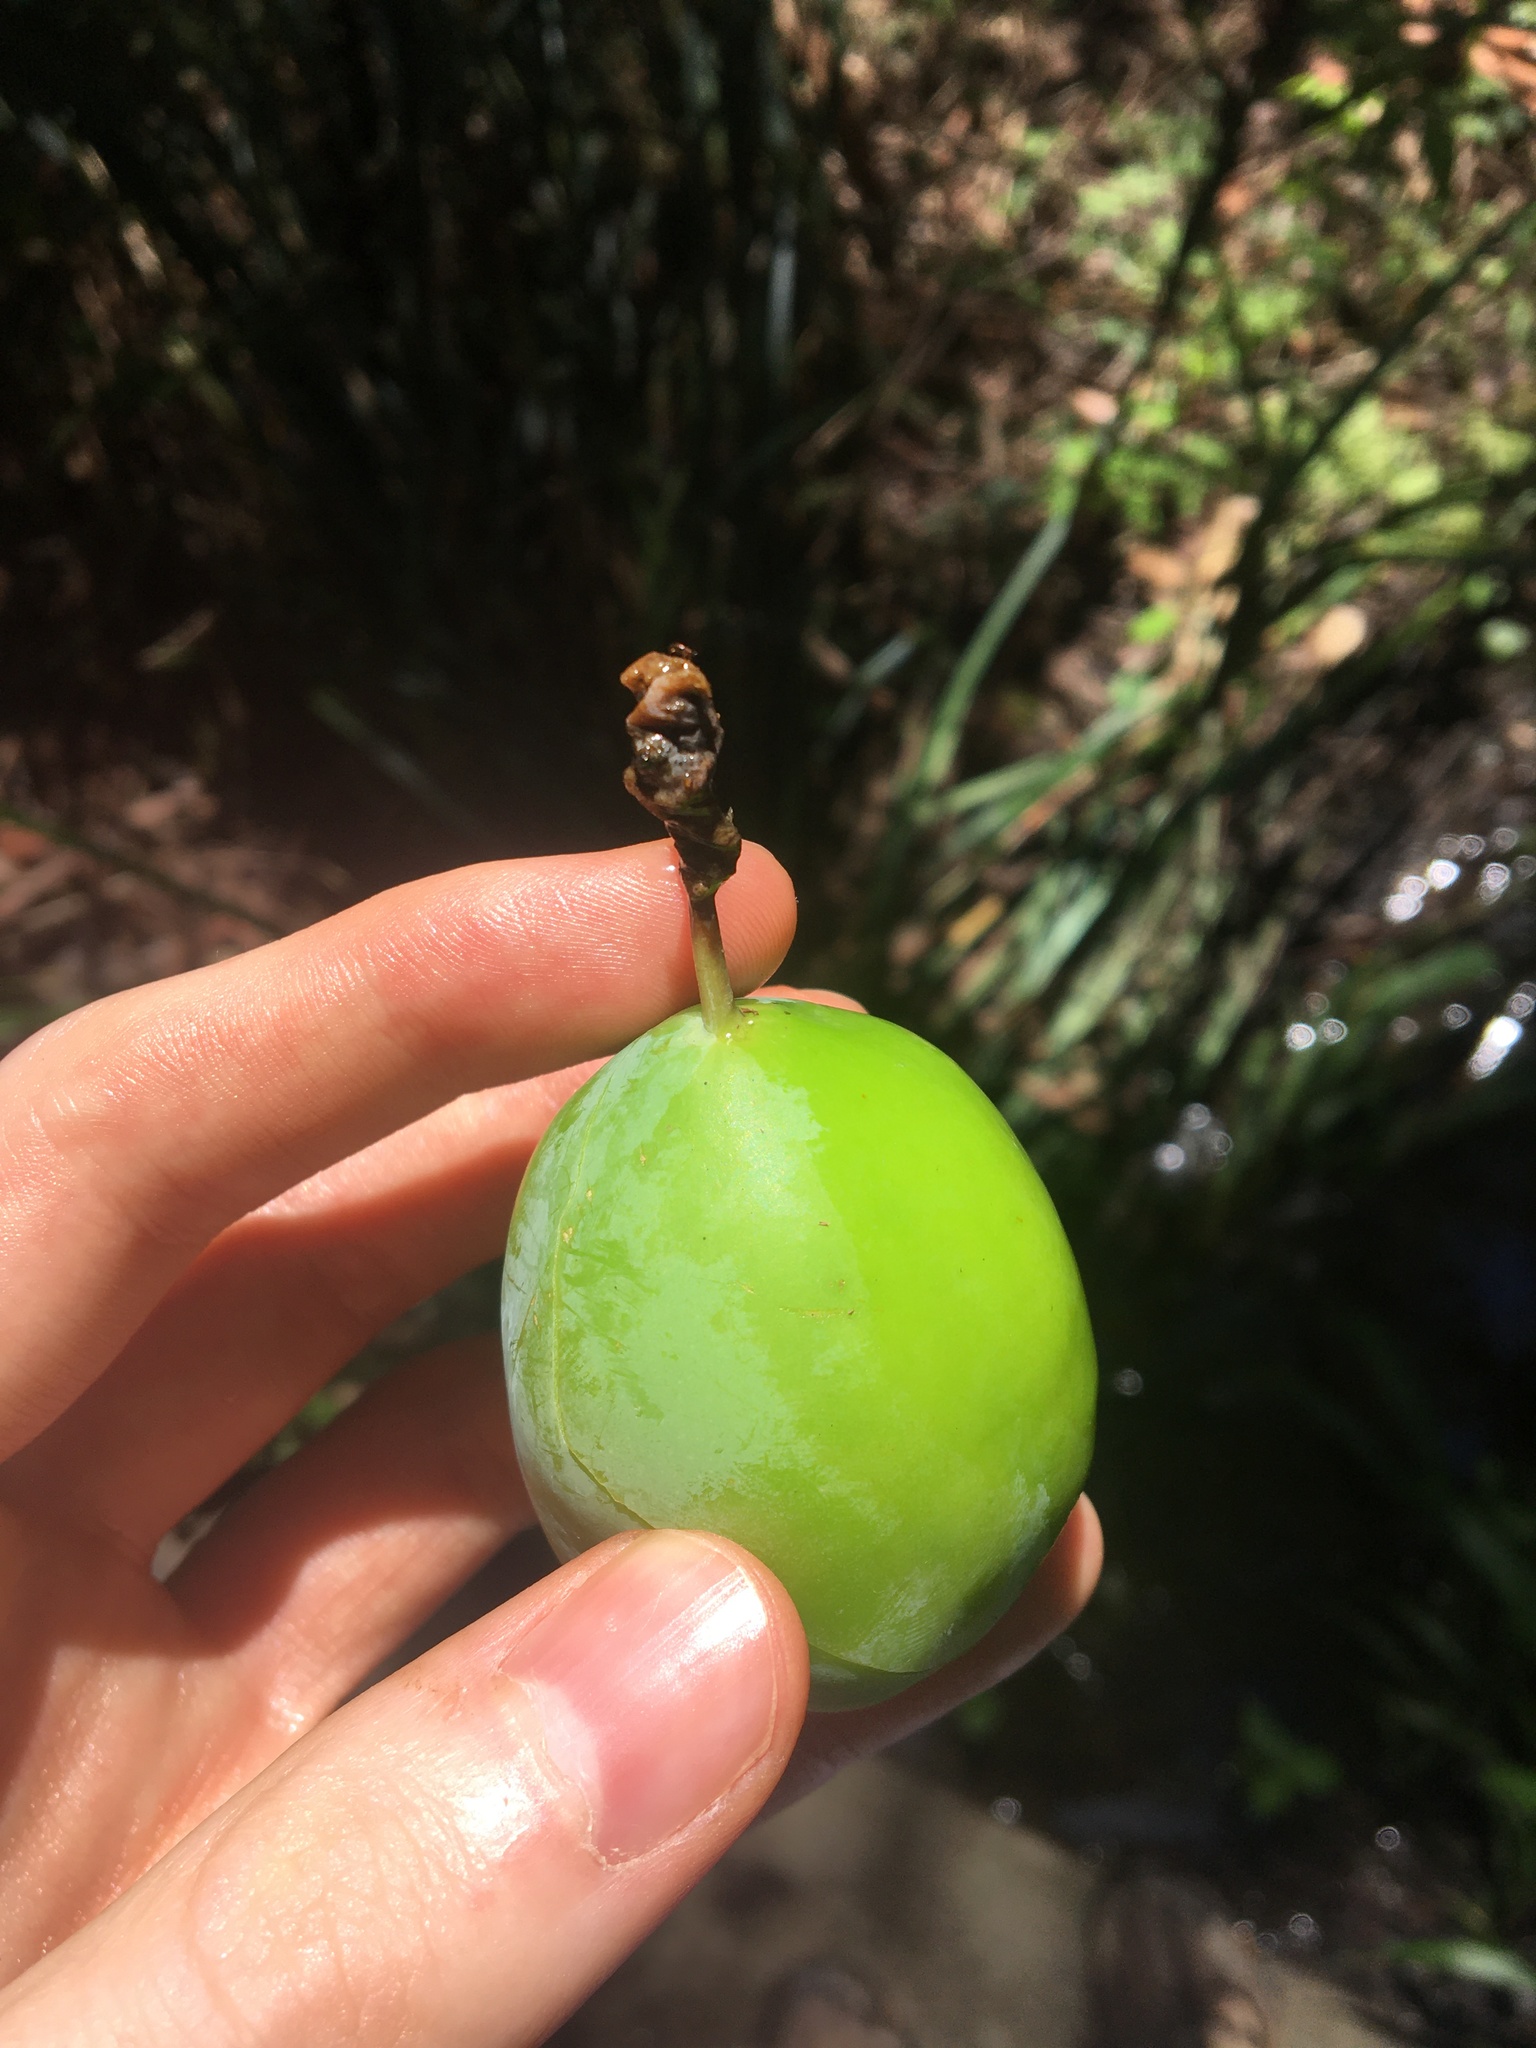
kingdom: Plantae
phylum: Tracheophyta
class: Magnoliopsida
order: Malpighiales
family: Passifloraceae
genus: Passiflora
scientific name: Passiflora subpeltata
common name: White passionflower
